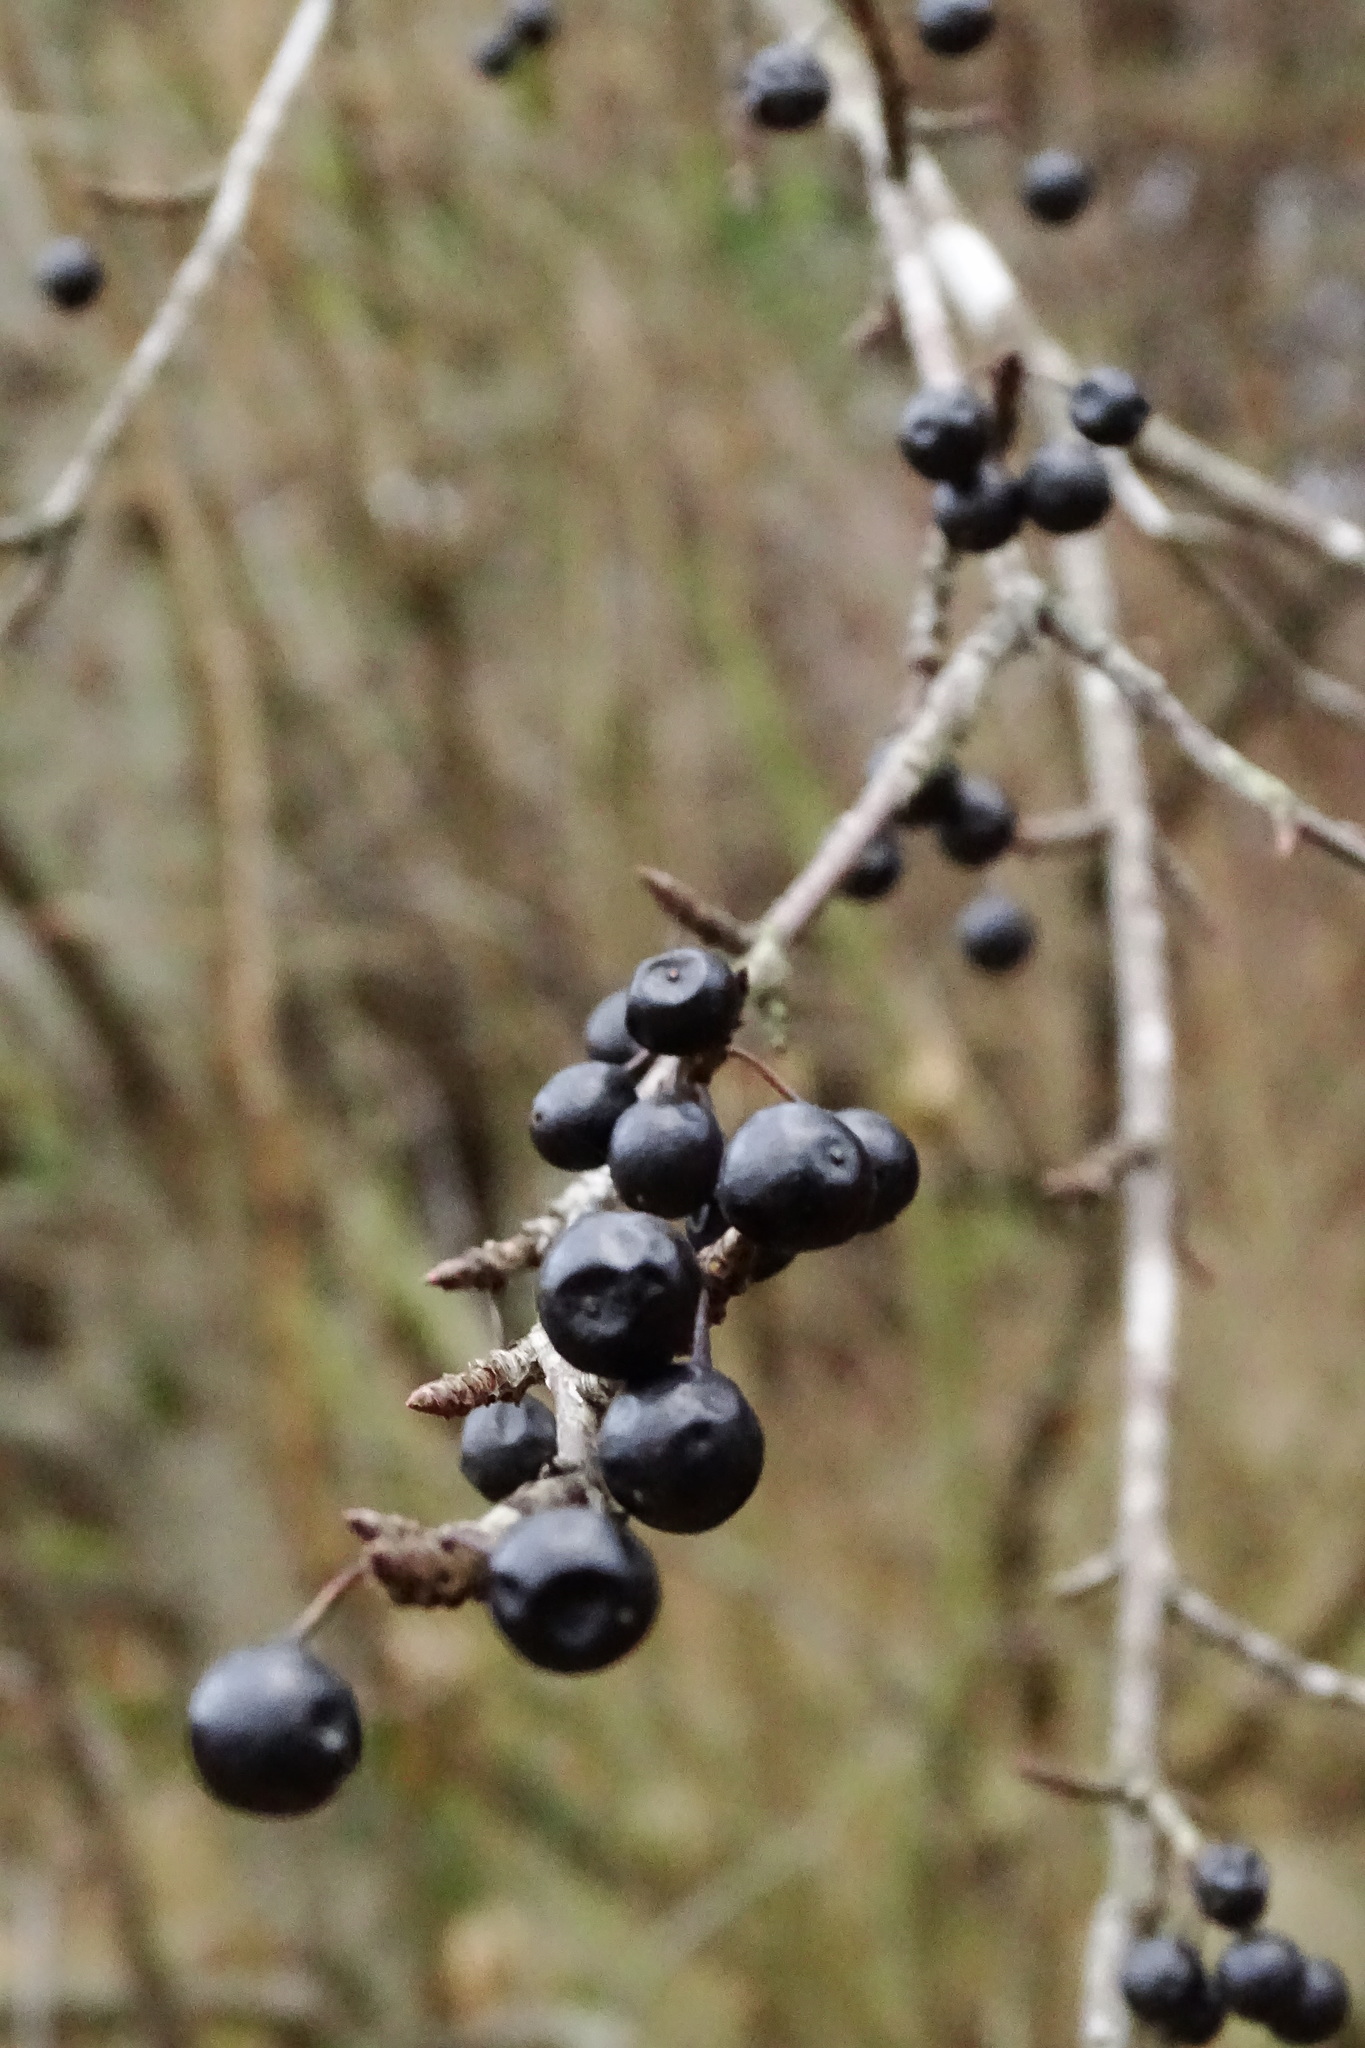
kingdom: Plantae
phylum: Tracheophyta
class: Magnoliopsida
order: Rosales
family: Rhamnaceae
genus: Rhamnus
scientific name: Rhamnus cathartica
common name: Common buckthorn
